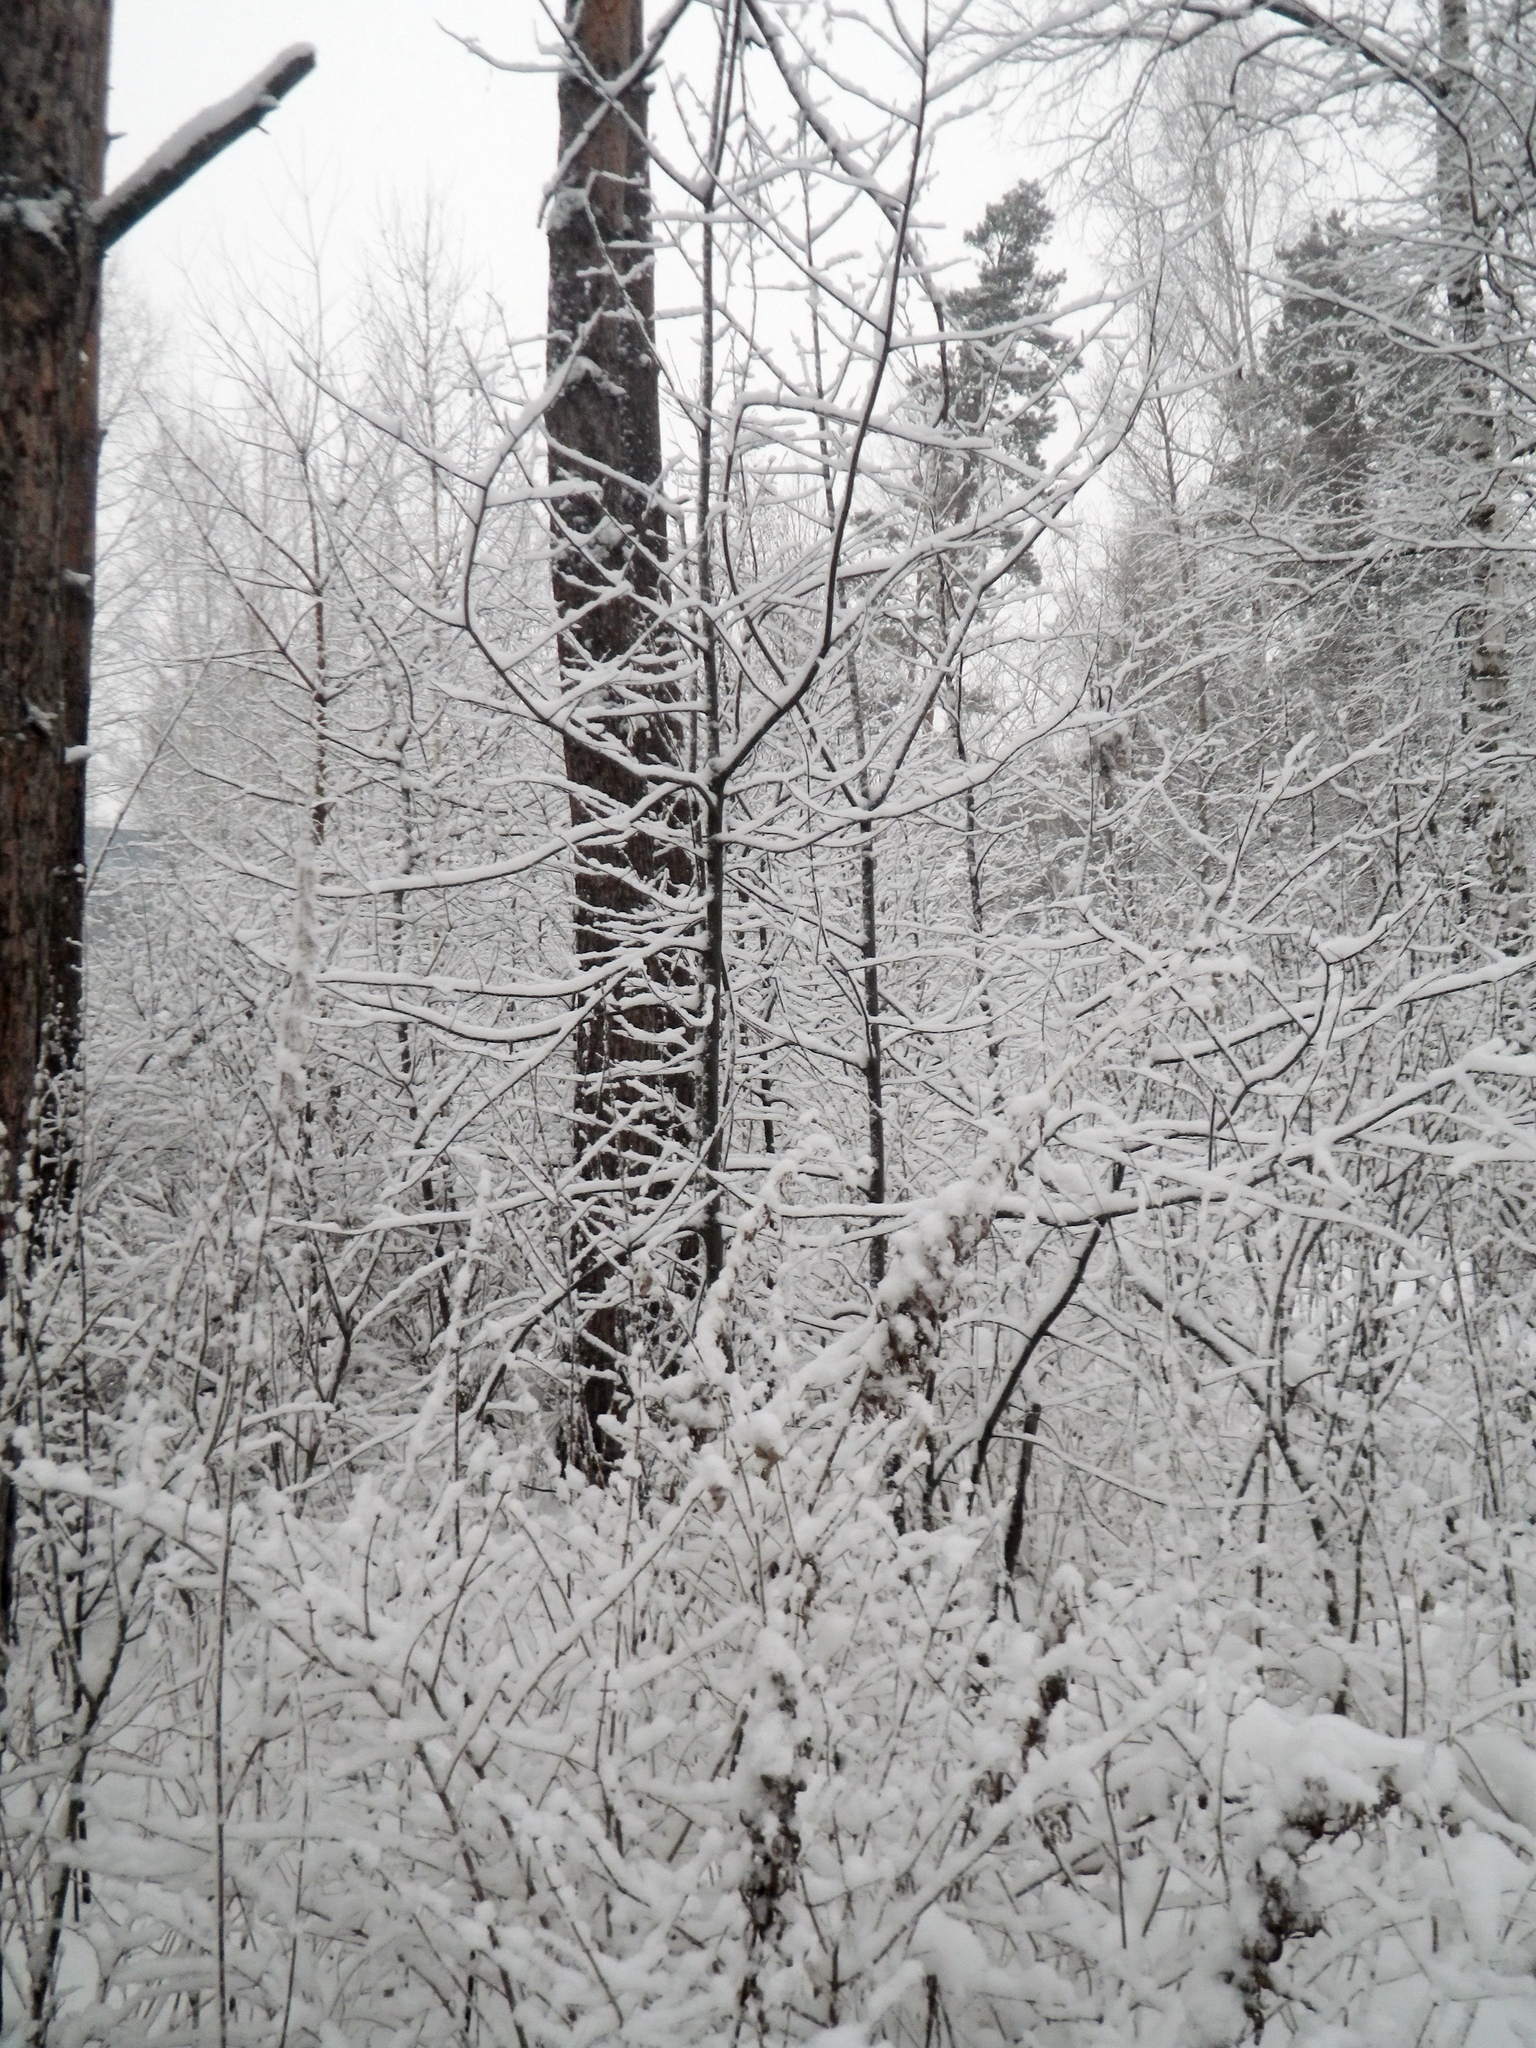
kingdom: Plantae
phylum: Tracheophyta
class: Magnoliopsida
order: Rosales
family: Rosaceae
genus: Prunus
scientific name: Prunus padus
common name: Bird cherry
